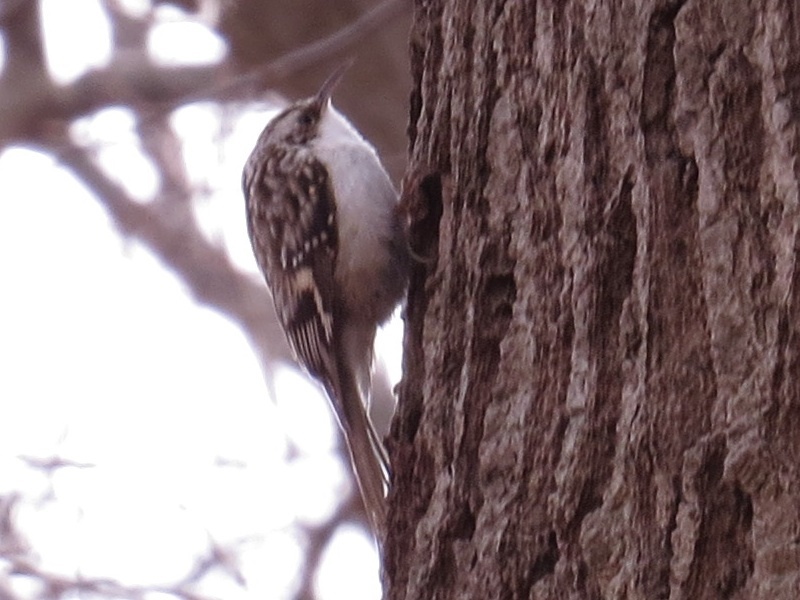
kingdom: Animalia
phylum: Chordata
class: Aves
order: Passeriformes
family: Certhiidae
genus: Certhia
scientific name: Certhia americana
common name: Brown creeper
